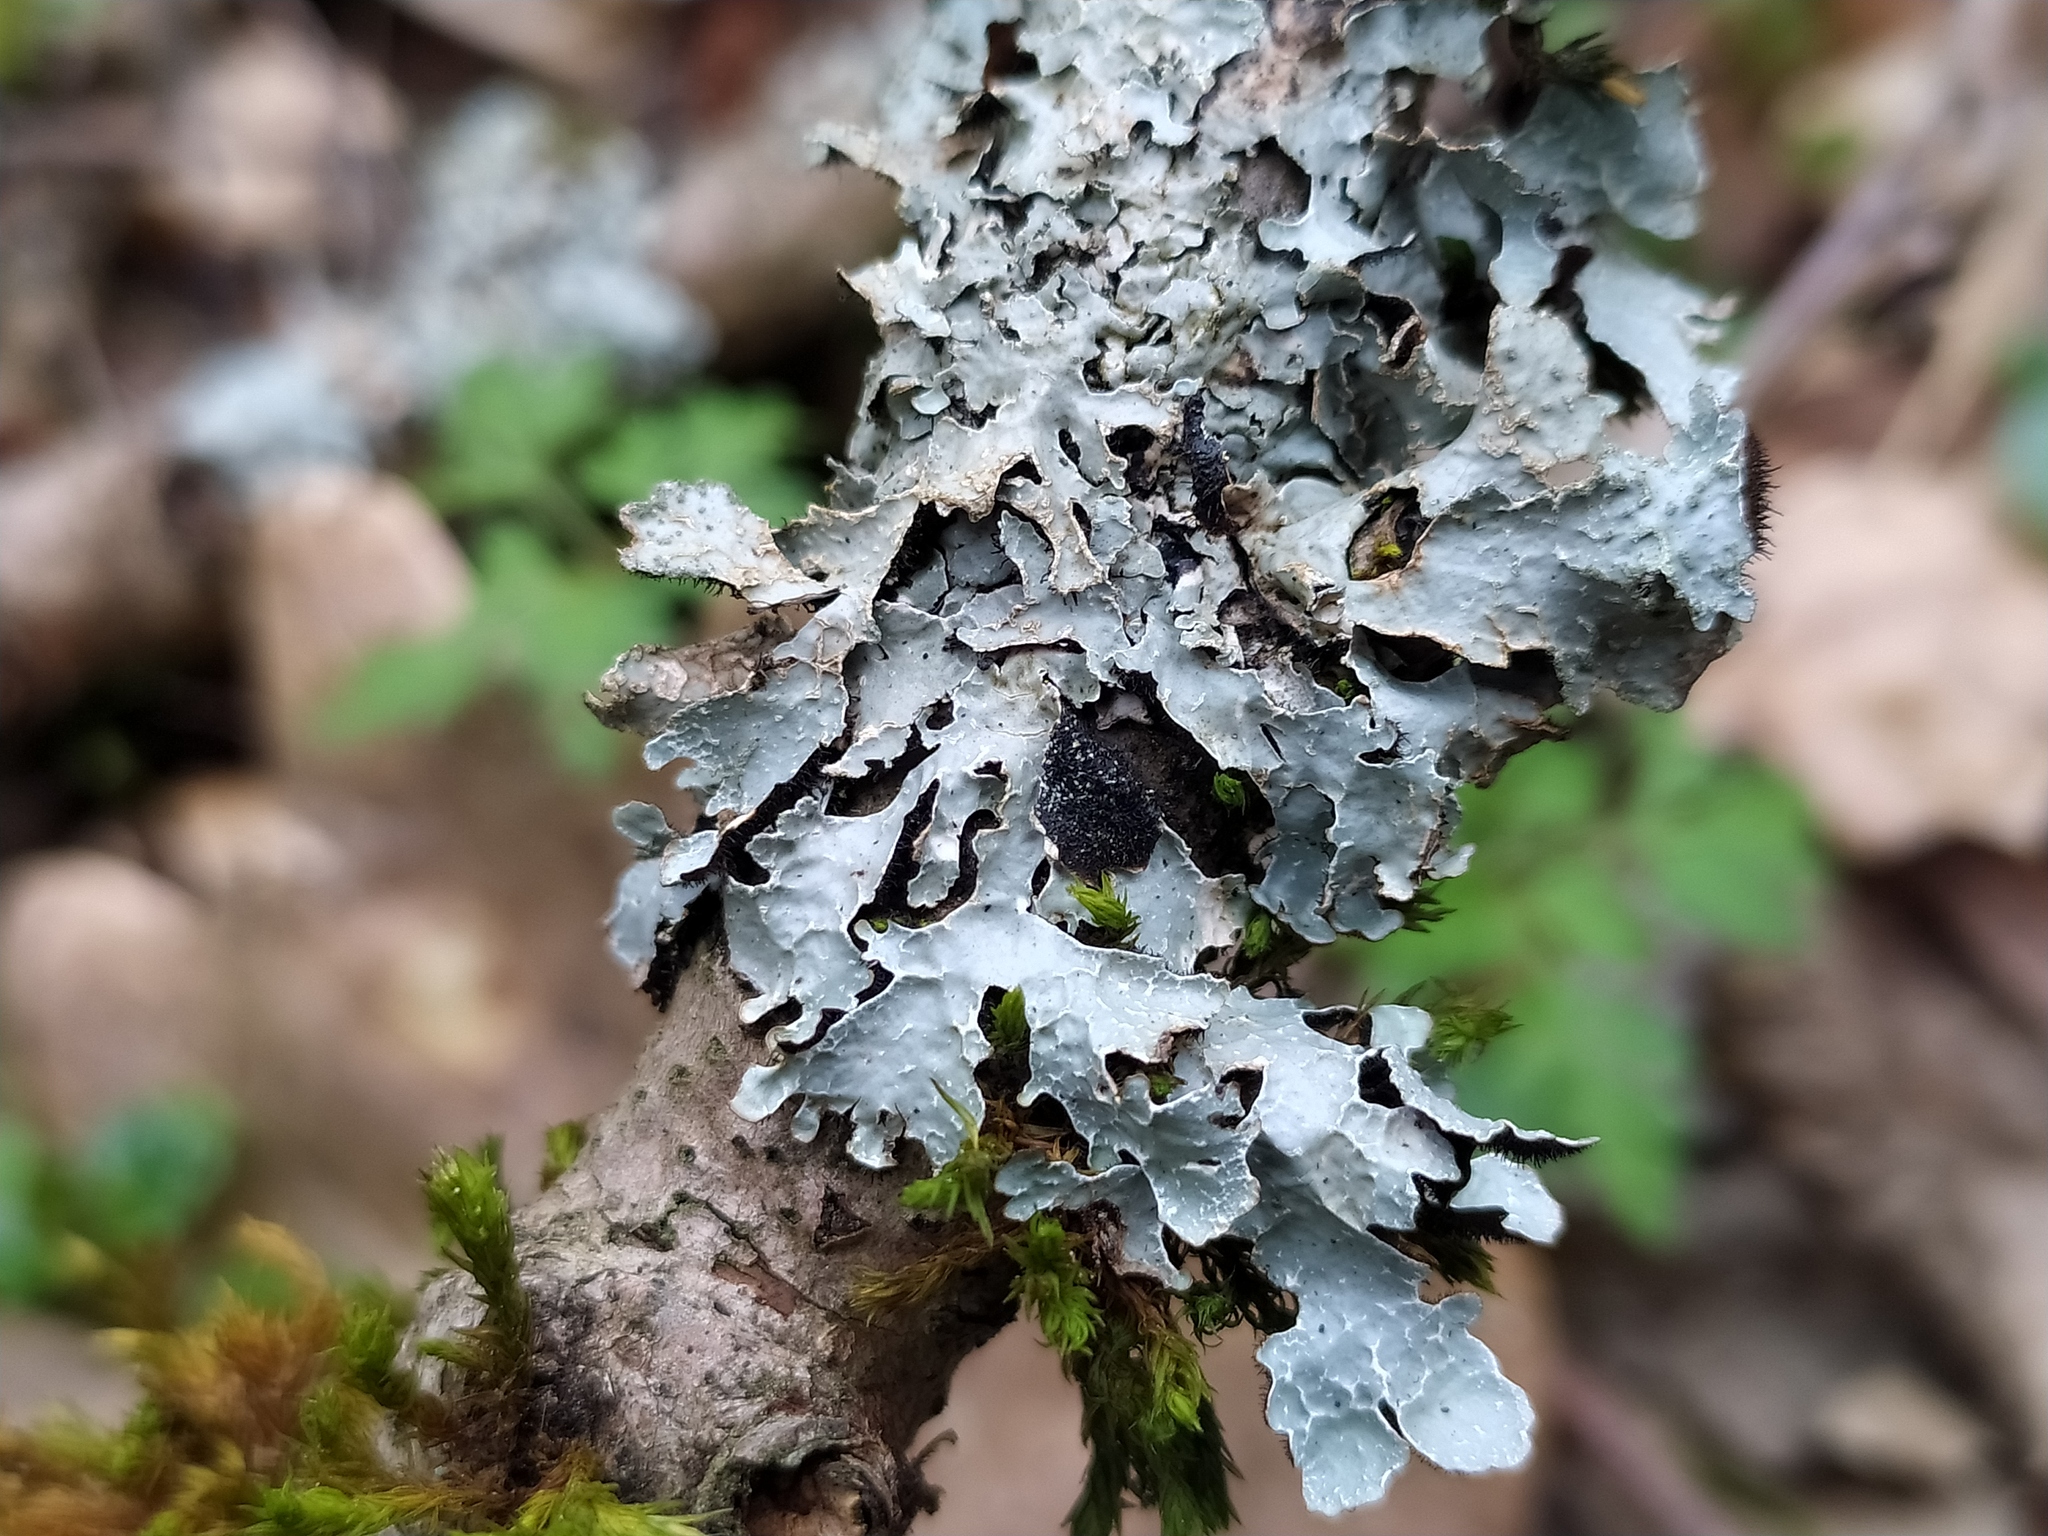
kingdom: Fungi
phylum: Ascomycota
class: Lecanoromycetes
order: Lecanorales
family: Parmeliaceae
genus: Parmelia
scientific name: Parmelia sulcata
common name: Netted shield lichen
